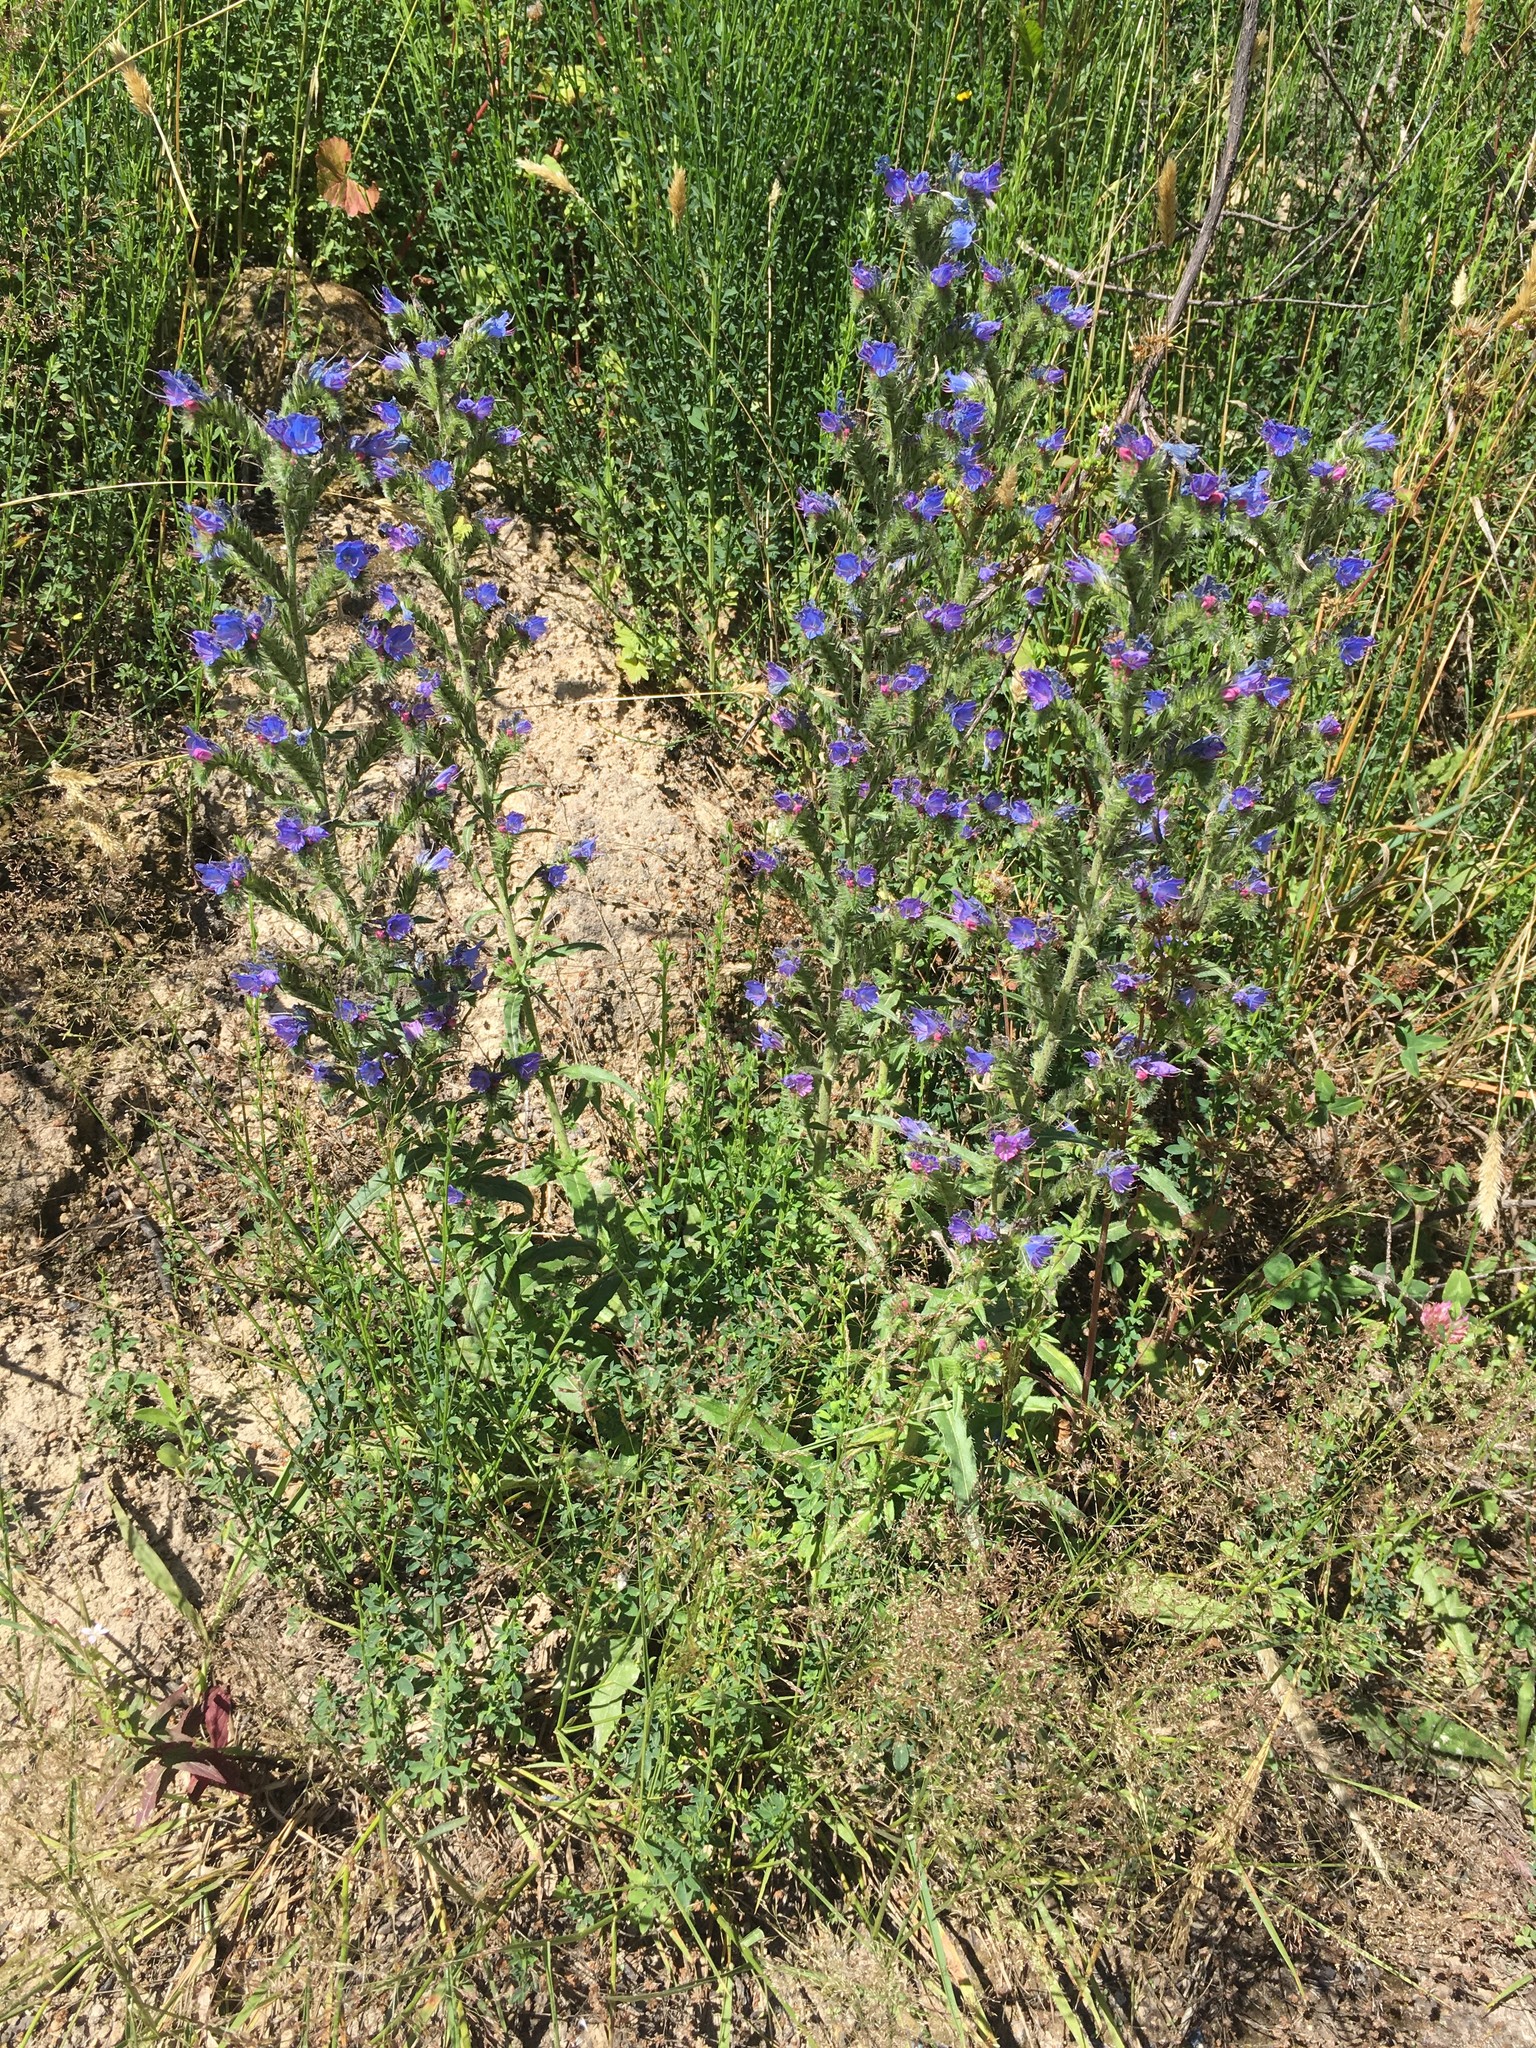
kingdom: Plantae
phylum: Tracheophyta
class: Magnoliopsida
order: Boraginales
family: Boraginaceae
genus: Echium
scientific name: Echium vulgare
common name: Common viper's bugloss
